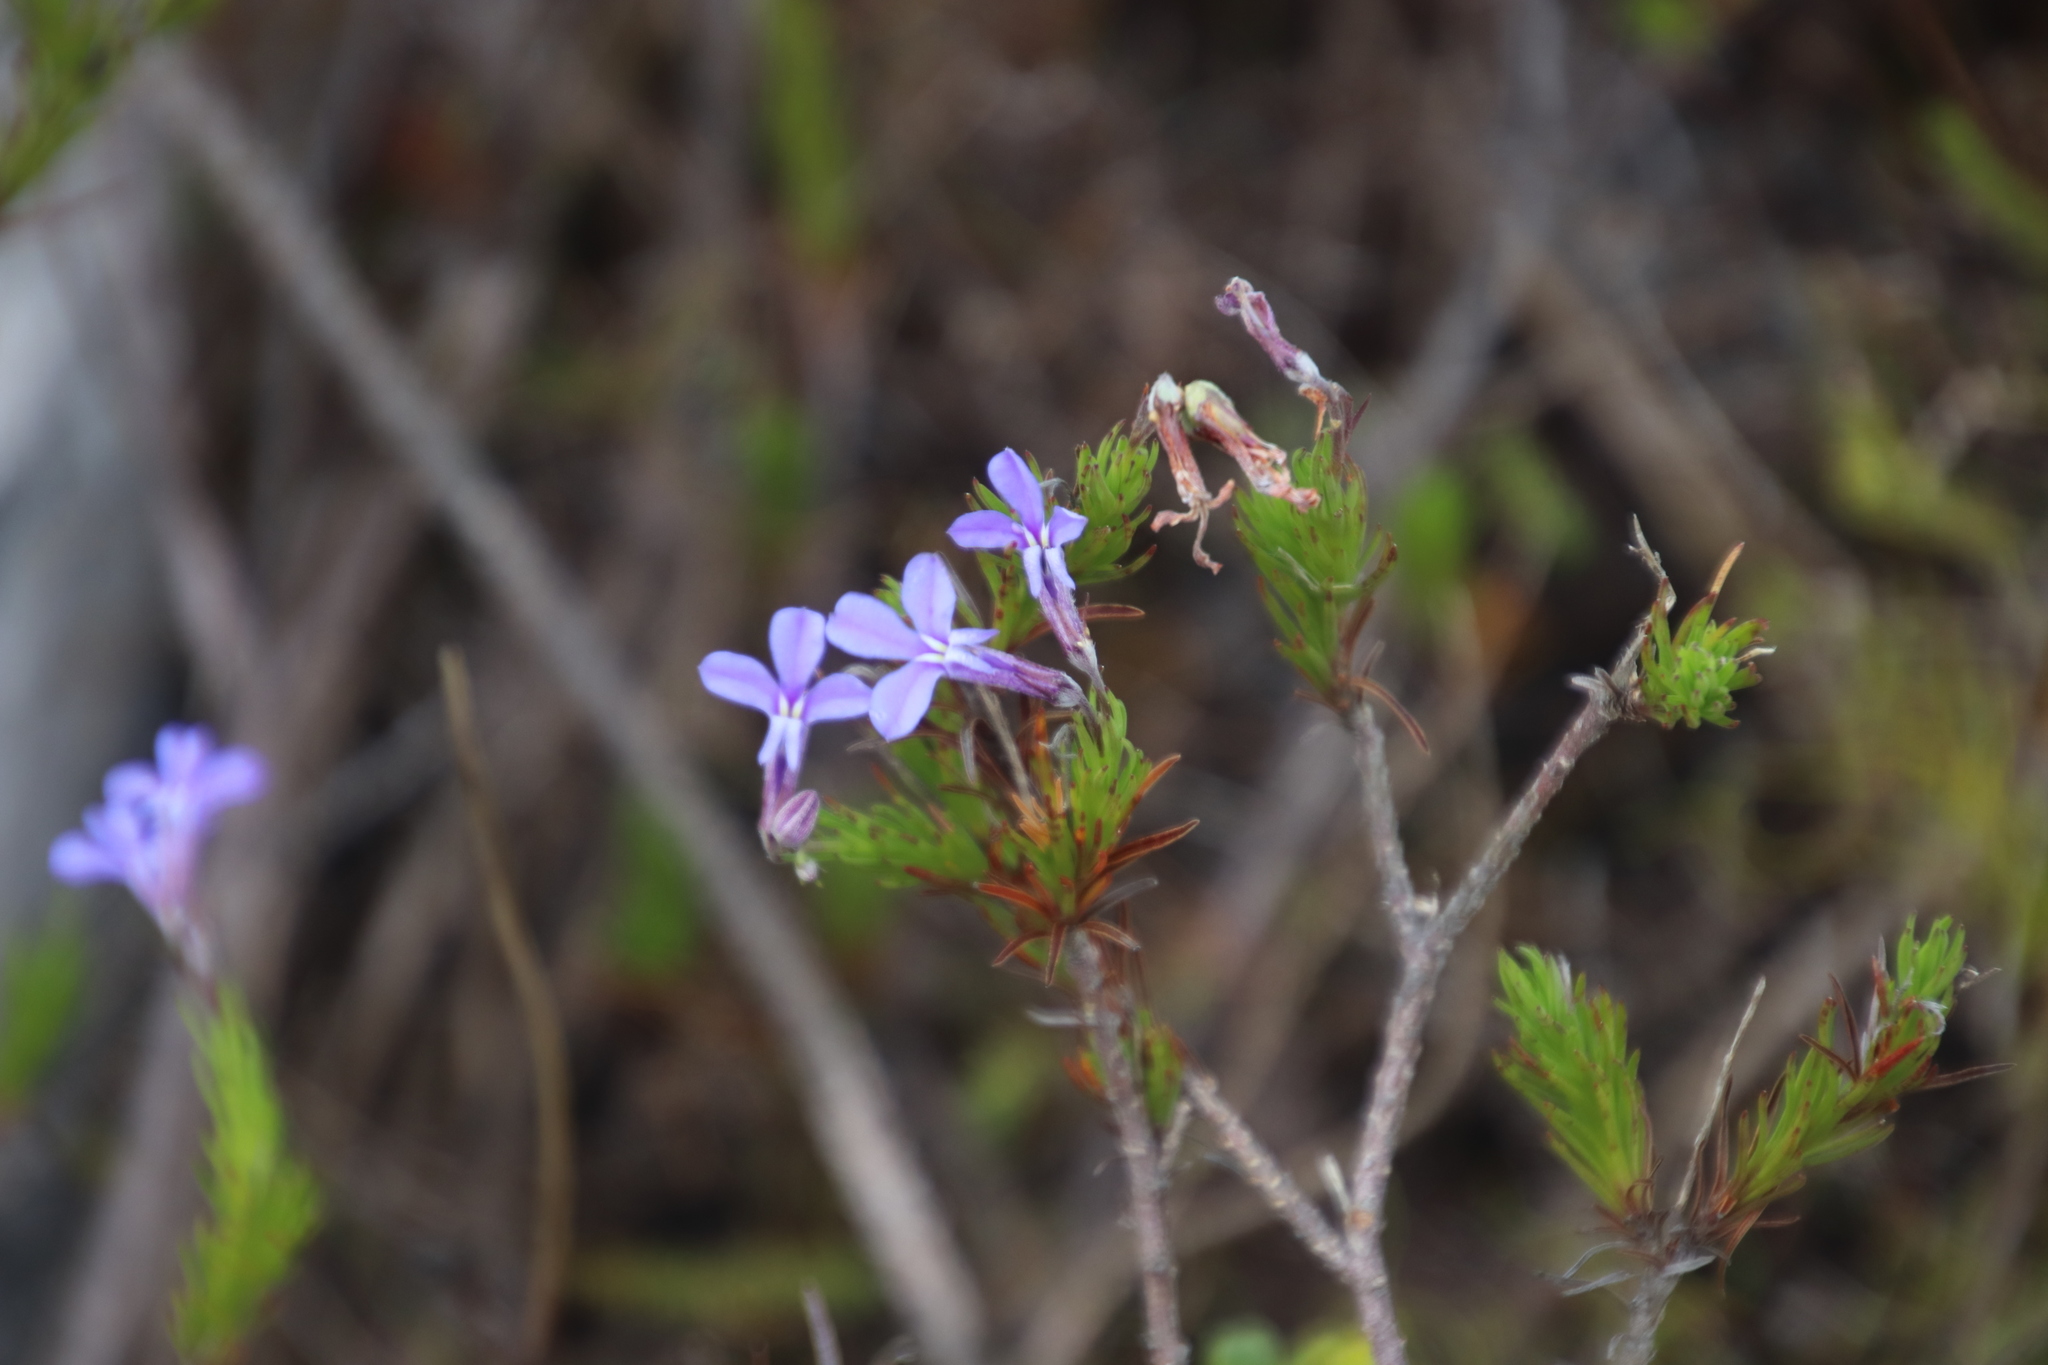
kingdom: Plantae
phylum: Tracheophyta
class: Magnoliopsida
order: Asterales
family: Campanulaceae
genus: Lobelia
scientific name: Lobelia pinifolia
